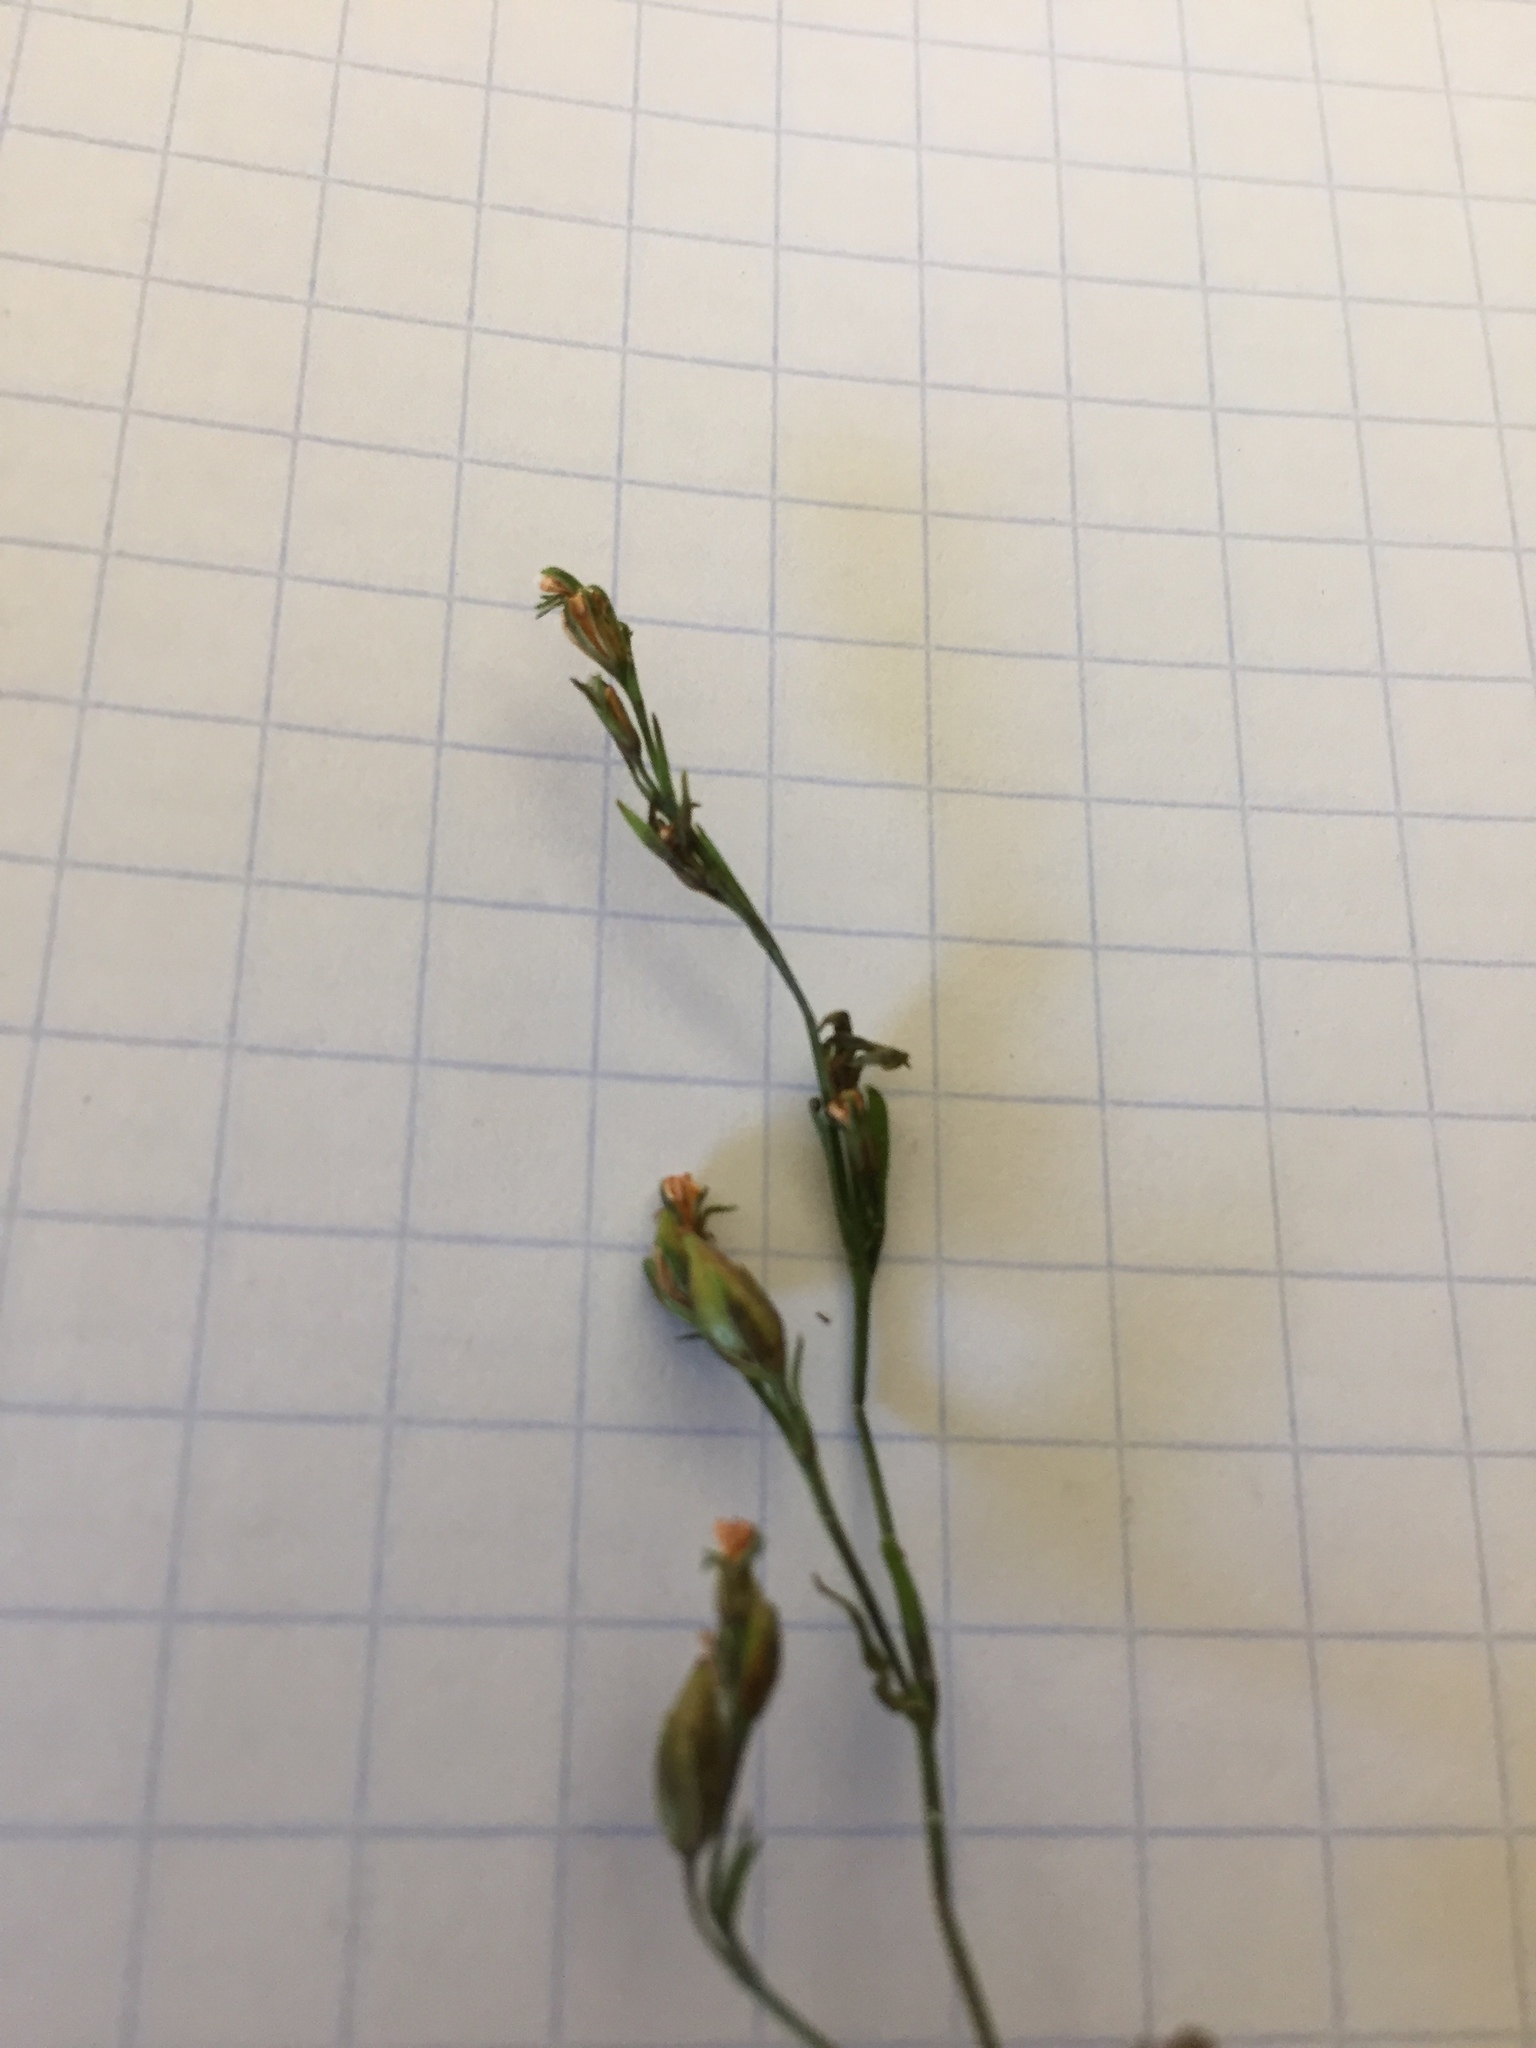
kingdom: Plantae
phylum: Tracheophyta
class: Magnoliopsida
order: Malpighiales
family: Hypericaceae
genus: Hypericum
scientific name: Hypericum drummondii
